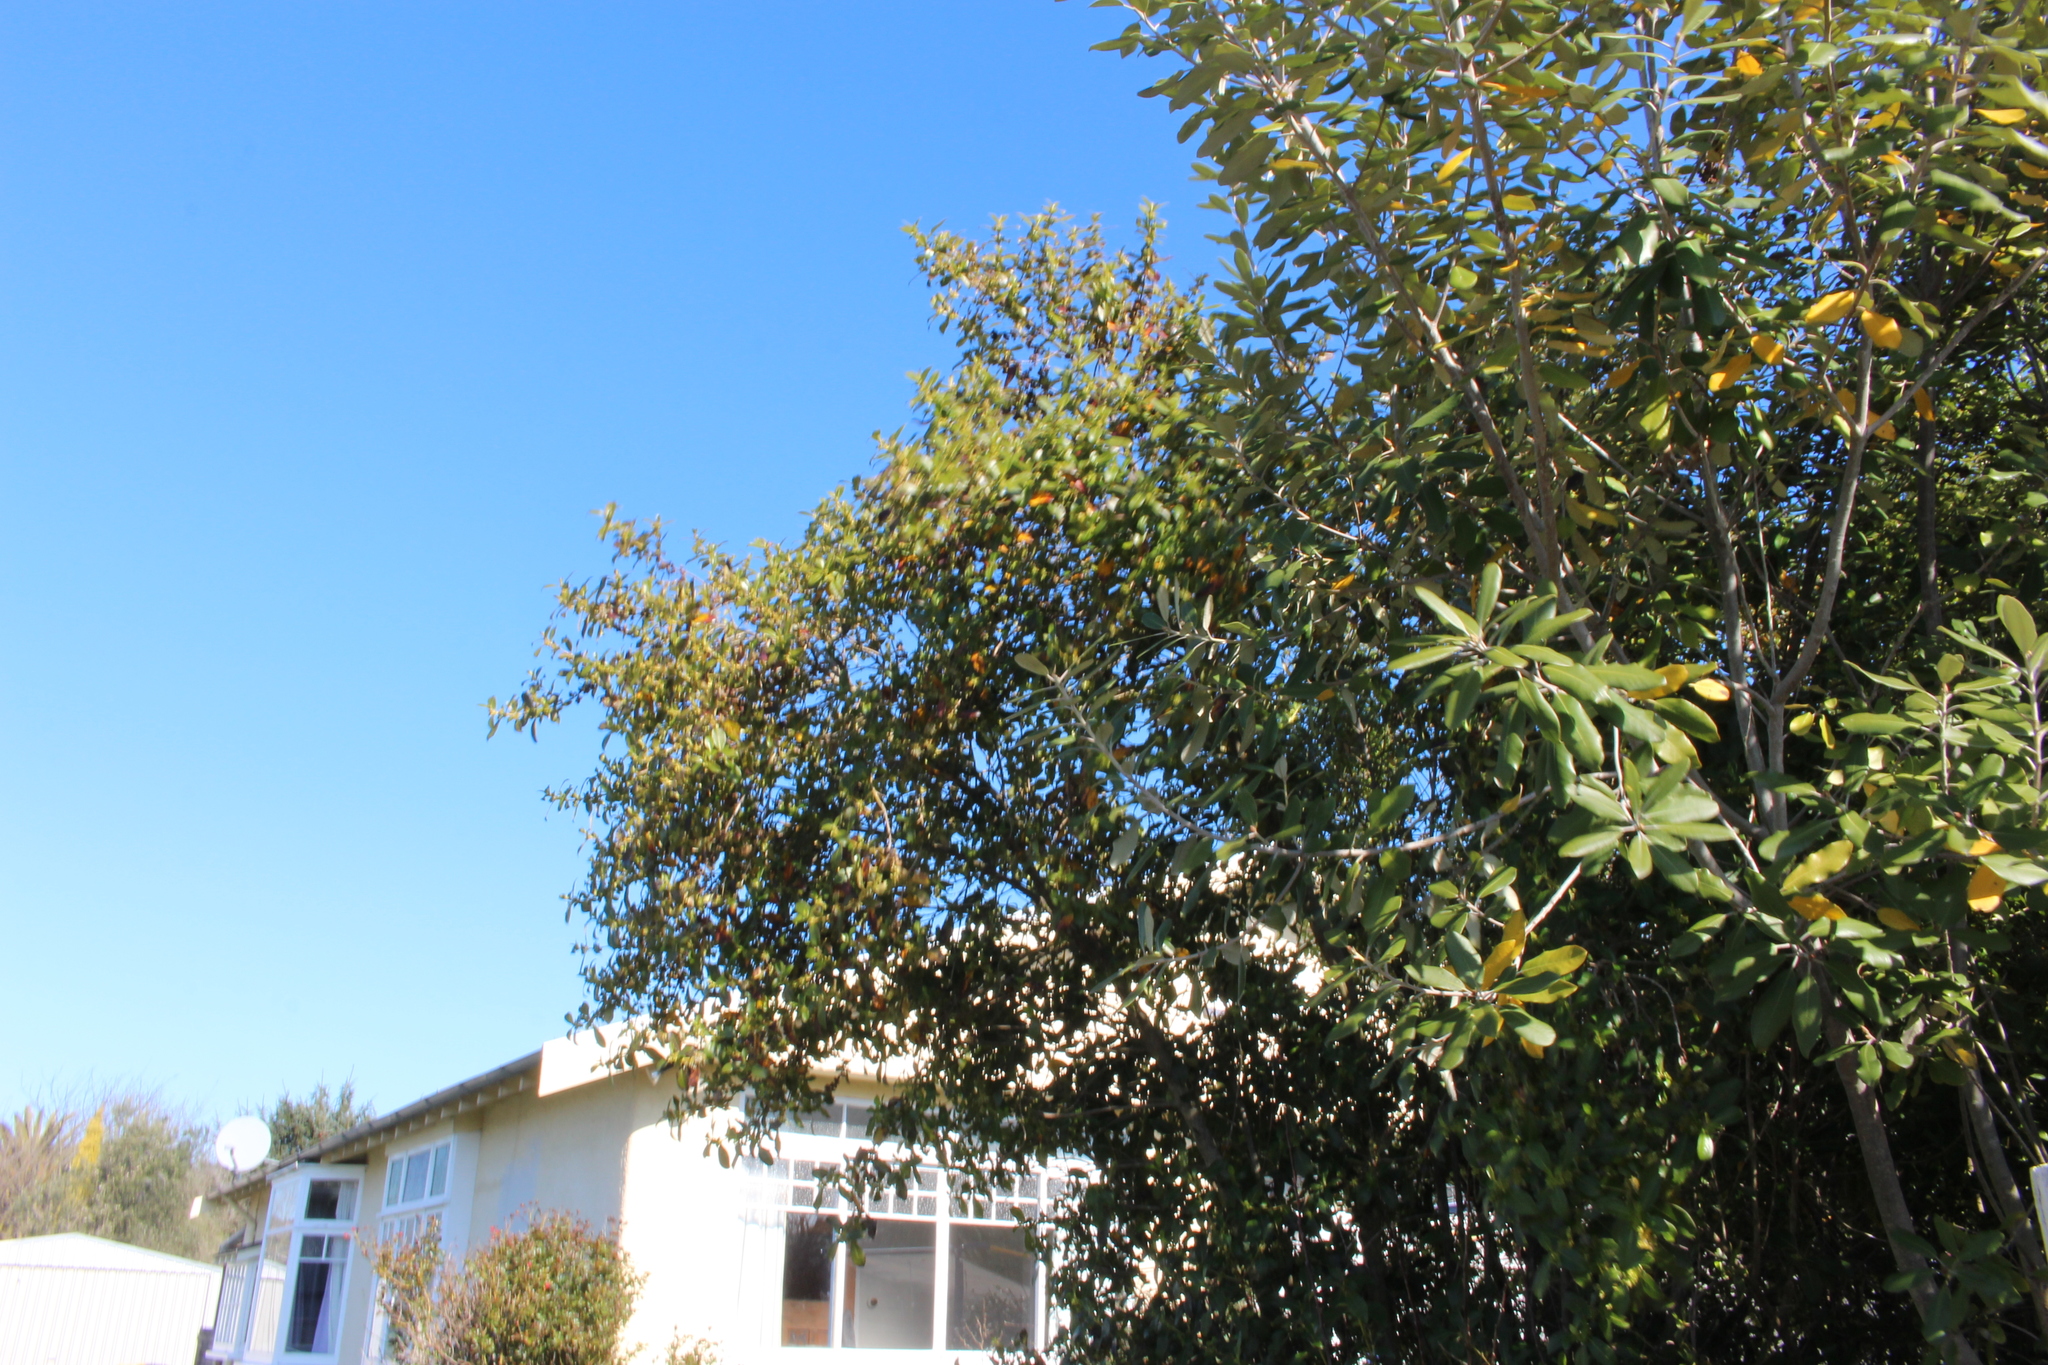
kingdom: Plantae
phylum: Tracheophyta
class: Magnoliopsida
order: Gentianales
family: Rubiaceae
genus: Coprosma
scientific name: Coprosma robusta
